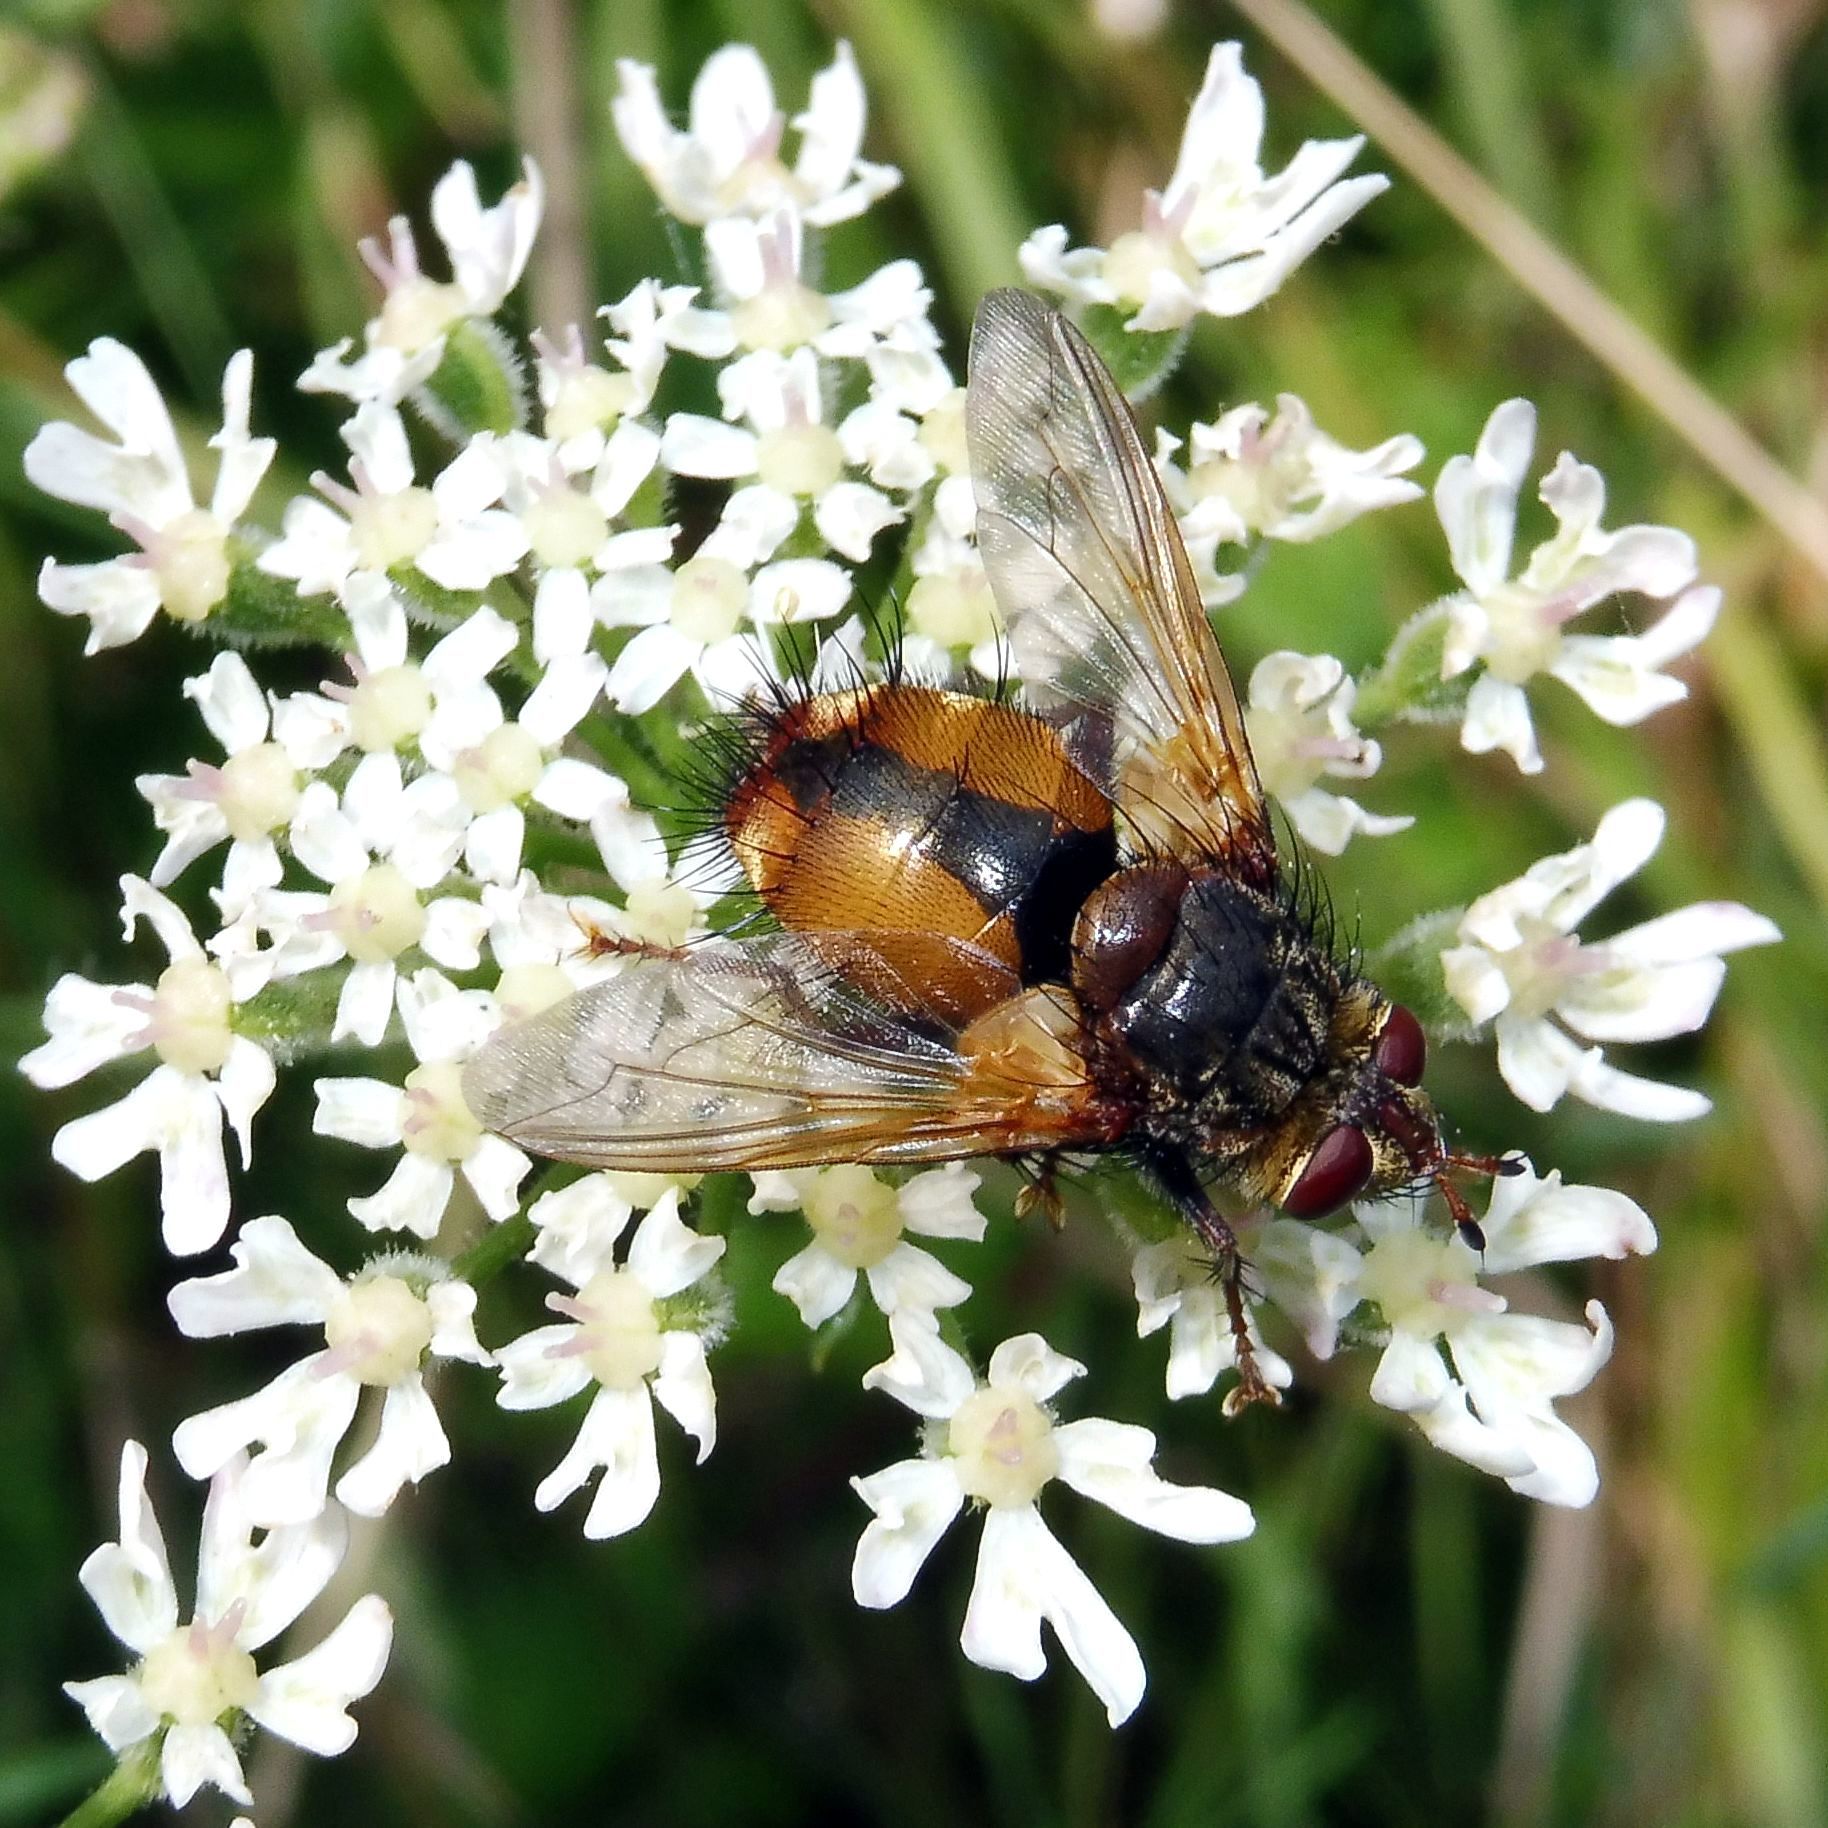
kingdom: Animalia
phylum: Arthropoda
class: Insecta
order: Diptera
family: Tachinidae
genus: Tachina
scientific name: Tachina fera
